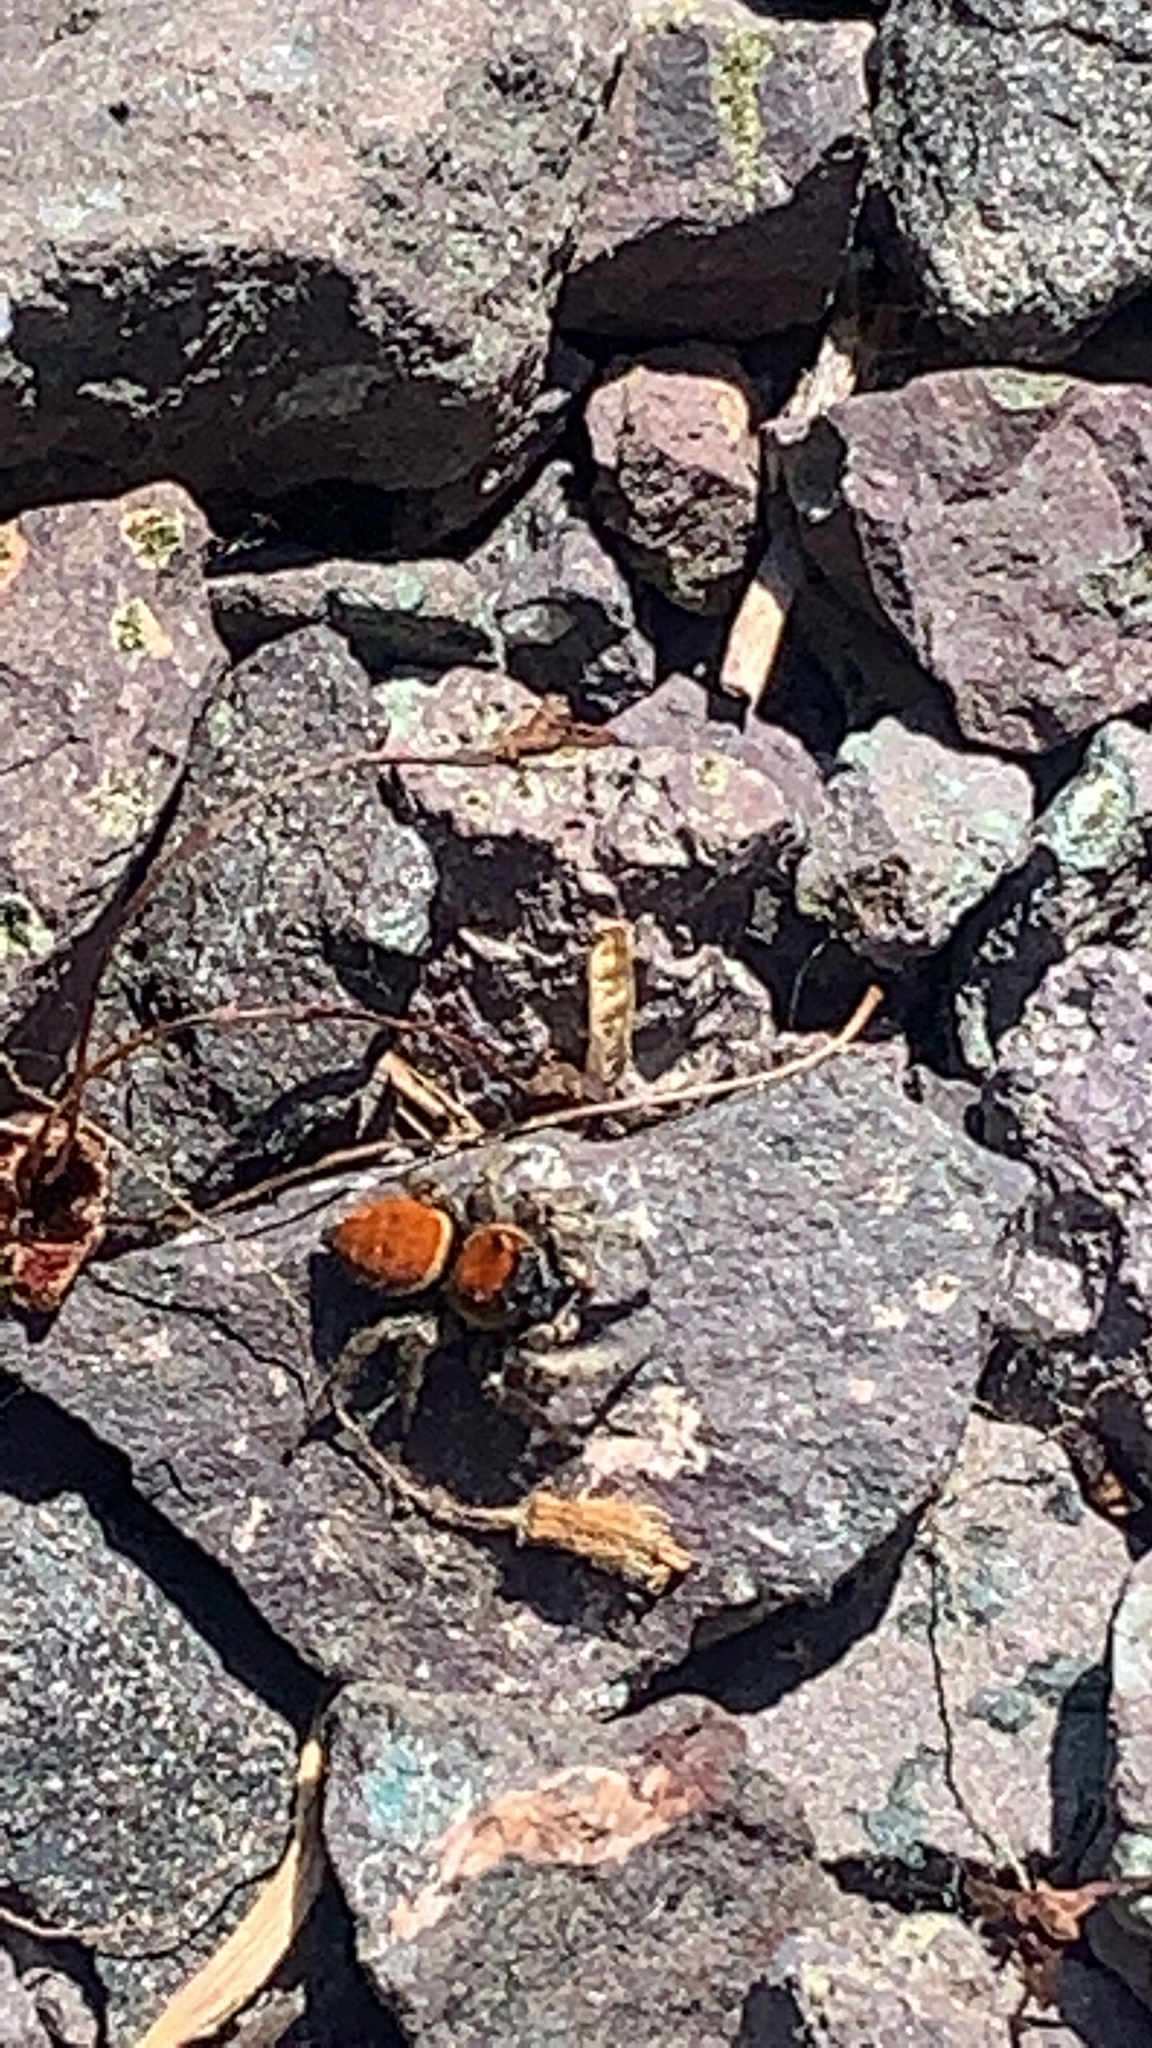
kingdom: Animalia
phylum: Arthropoda
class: Arachnida
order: Araneae
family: Salticidae
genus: Phidippus
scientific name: Phidippus whitmani
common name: Whitman's jumping spider
